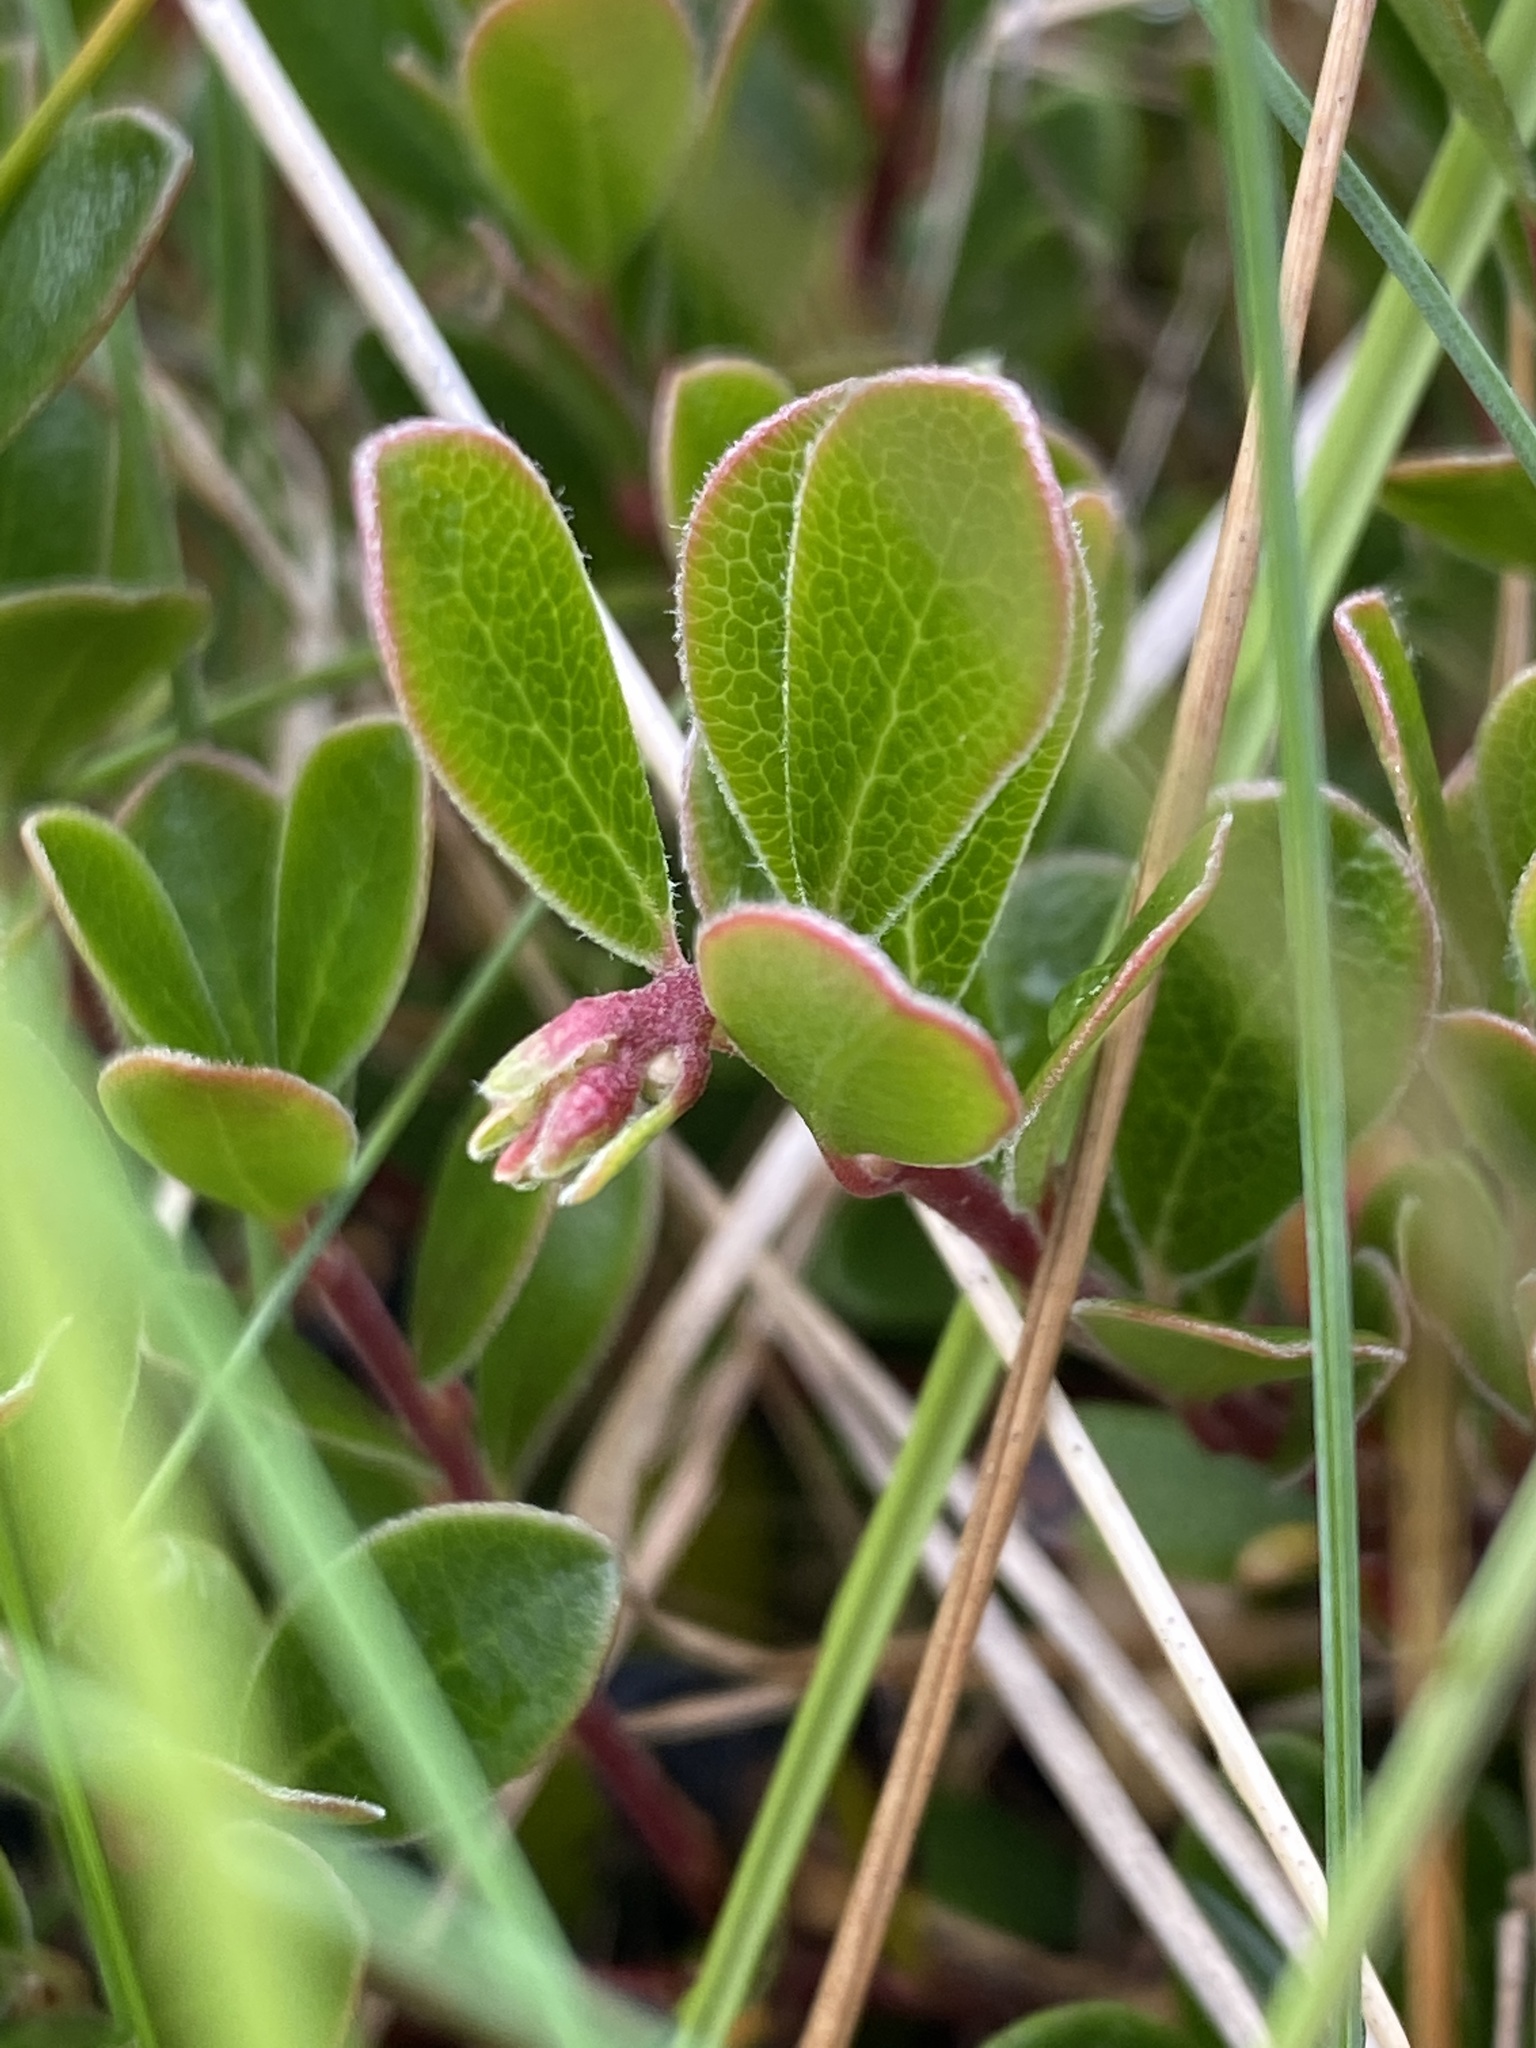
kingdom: Plantae
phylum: Tracheophyta
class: Magnoliopsida
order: Ericales
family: Ericaceae
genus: Arctostaphylos
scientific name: Arctostaphylos uva-ursi
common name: Bearberry
